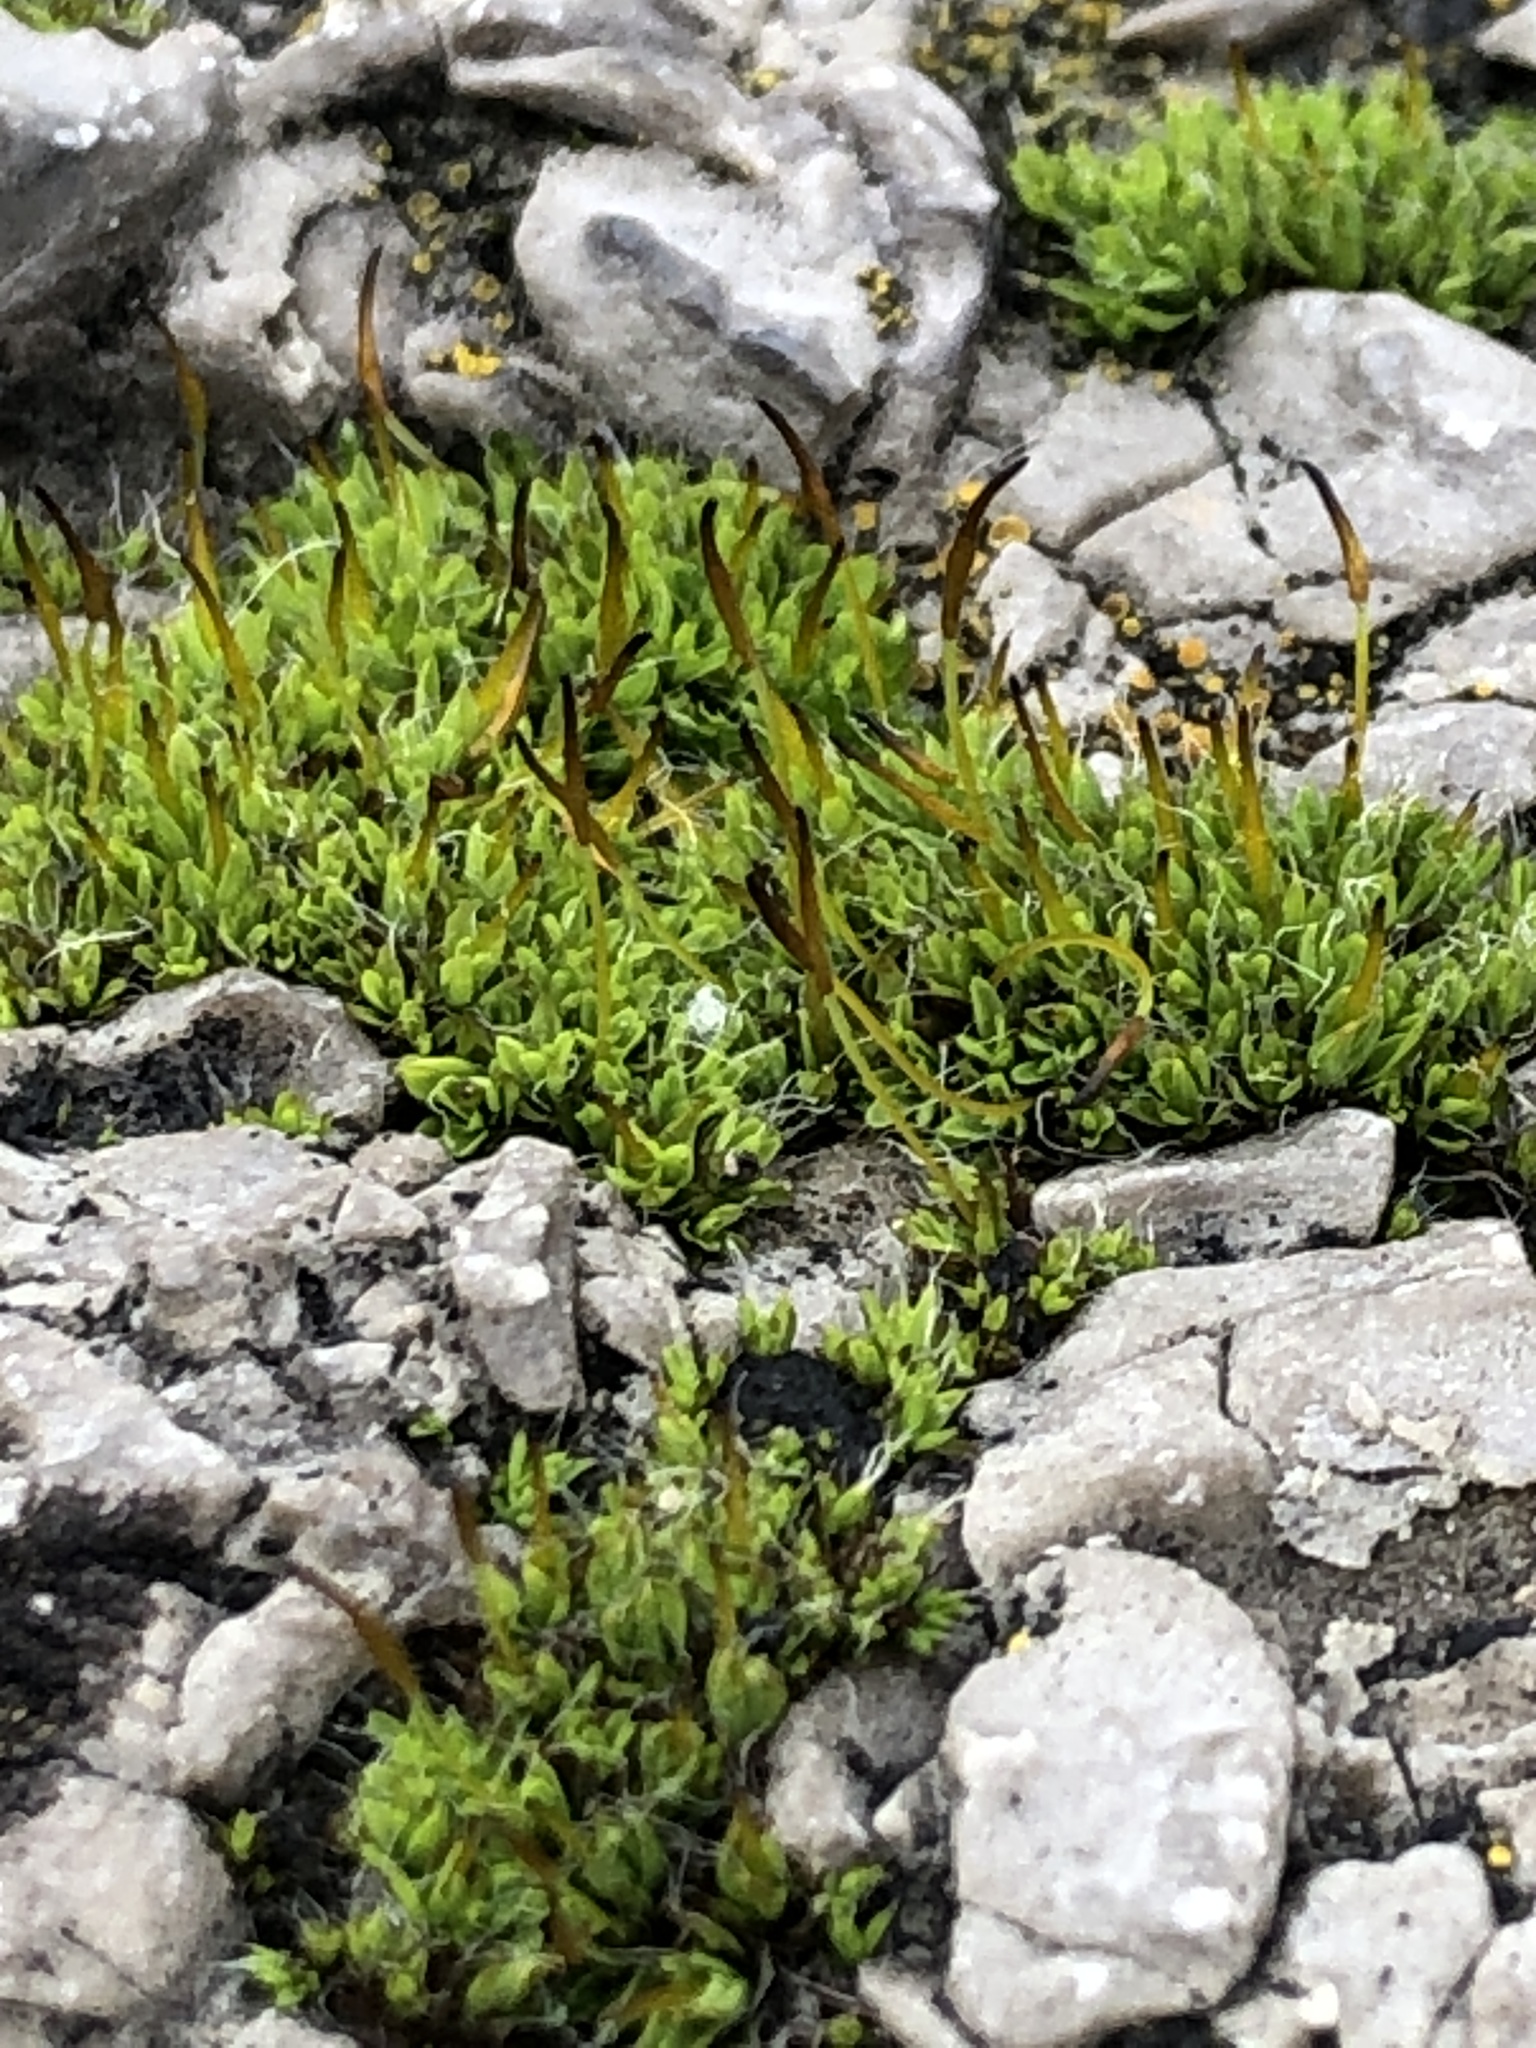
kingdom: Plantae
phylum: Bryophyta
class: Bryopsida
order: Pottiales
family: Pottiaceae
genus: Tortula
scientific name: Tortula muralis
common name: Wall screw-moss
